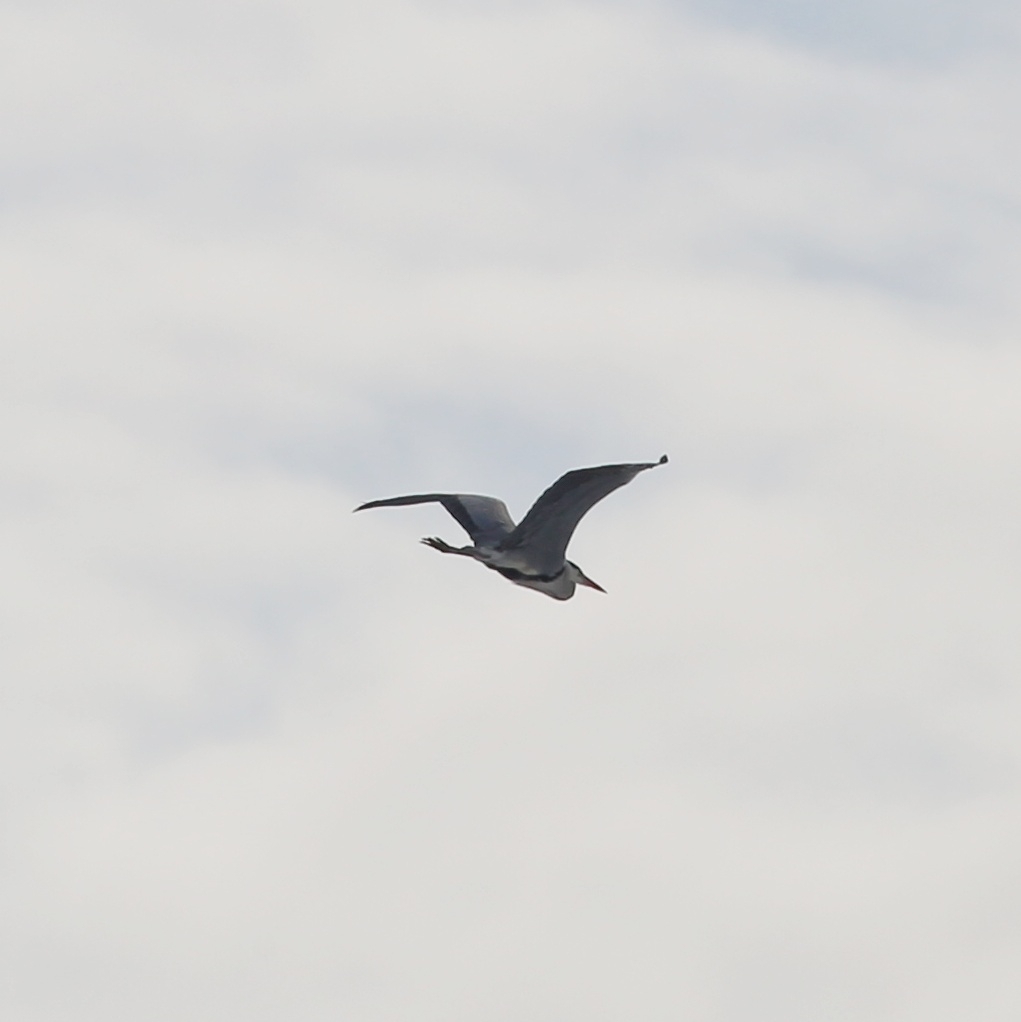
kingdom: Animalia
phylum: Chordata
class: Aves
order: Pelecaniformes
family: Ardeidae
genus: Ardea
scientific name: Ardea cinerea
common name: Grey heron
